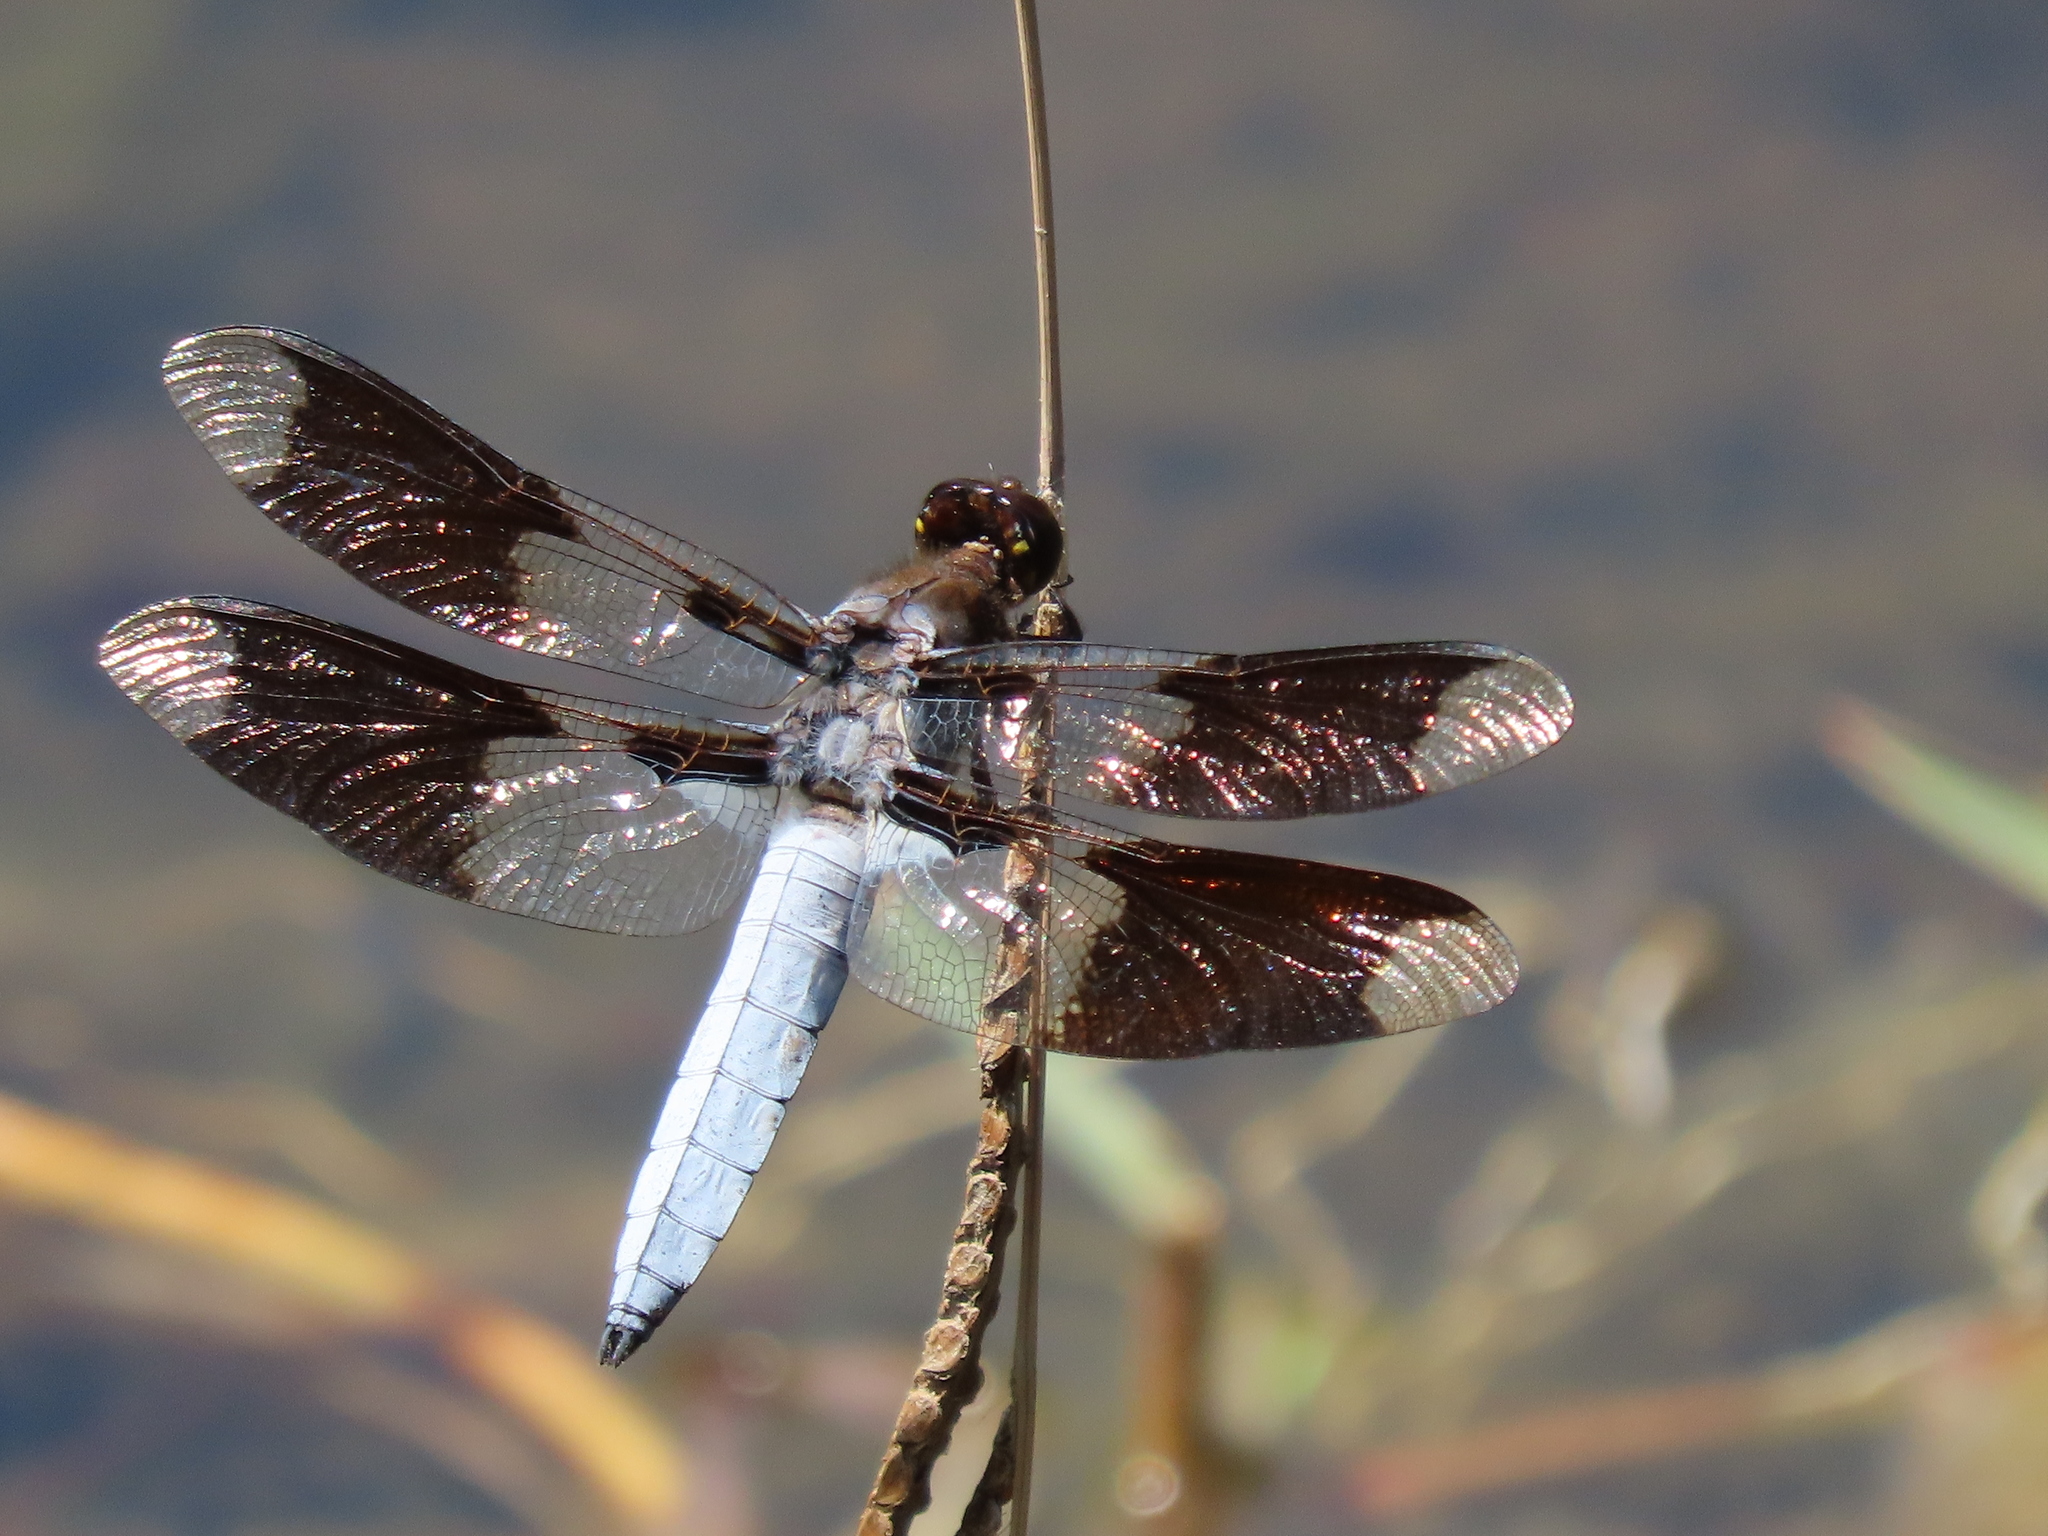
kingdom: Animalia
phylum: Arthropoda
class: Insecta
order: Odonata
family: Libellulidae
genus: Plathemis
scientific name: Plathemis lydia
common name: Common whitetail
